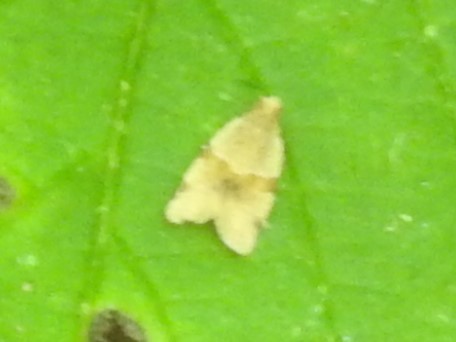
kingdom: Animalia
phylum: Arthropoda
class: Insecta
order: Lepidoptera
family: Tortricidae
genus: Clepsis
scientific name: Clepsis peritana
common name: Garden tortrix
